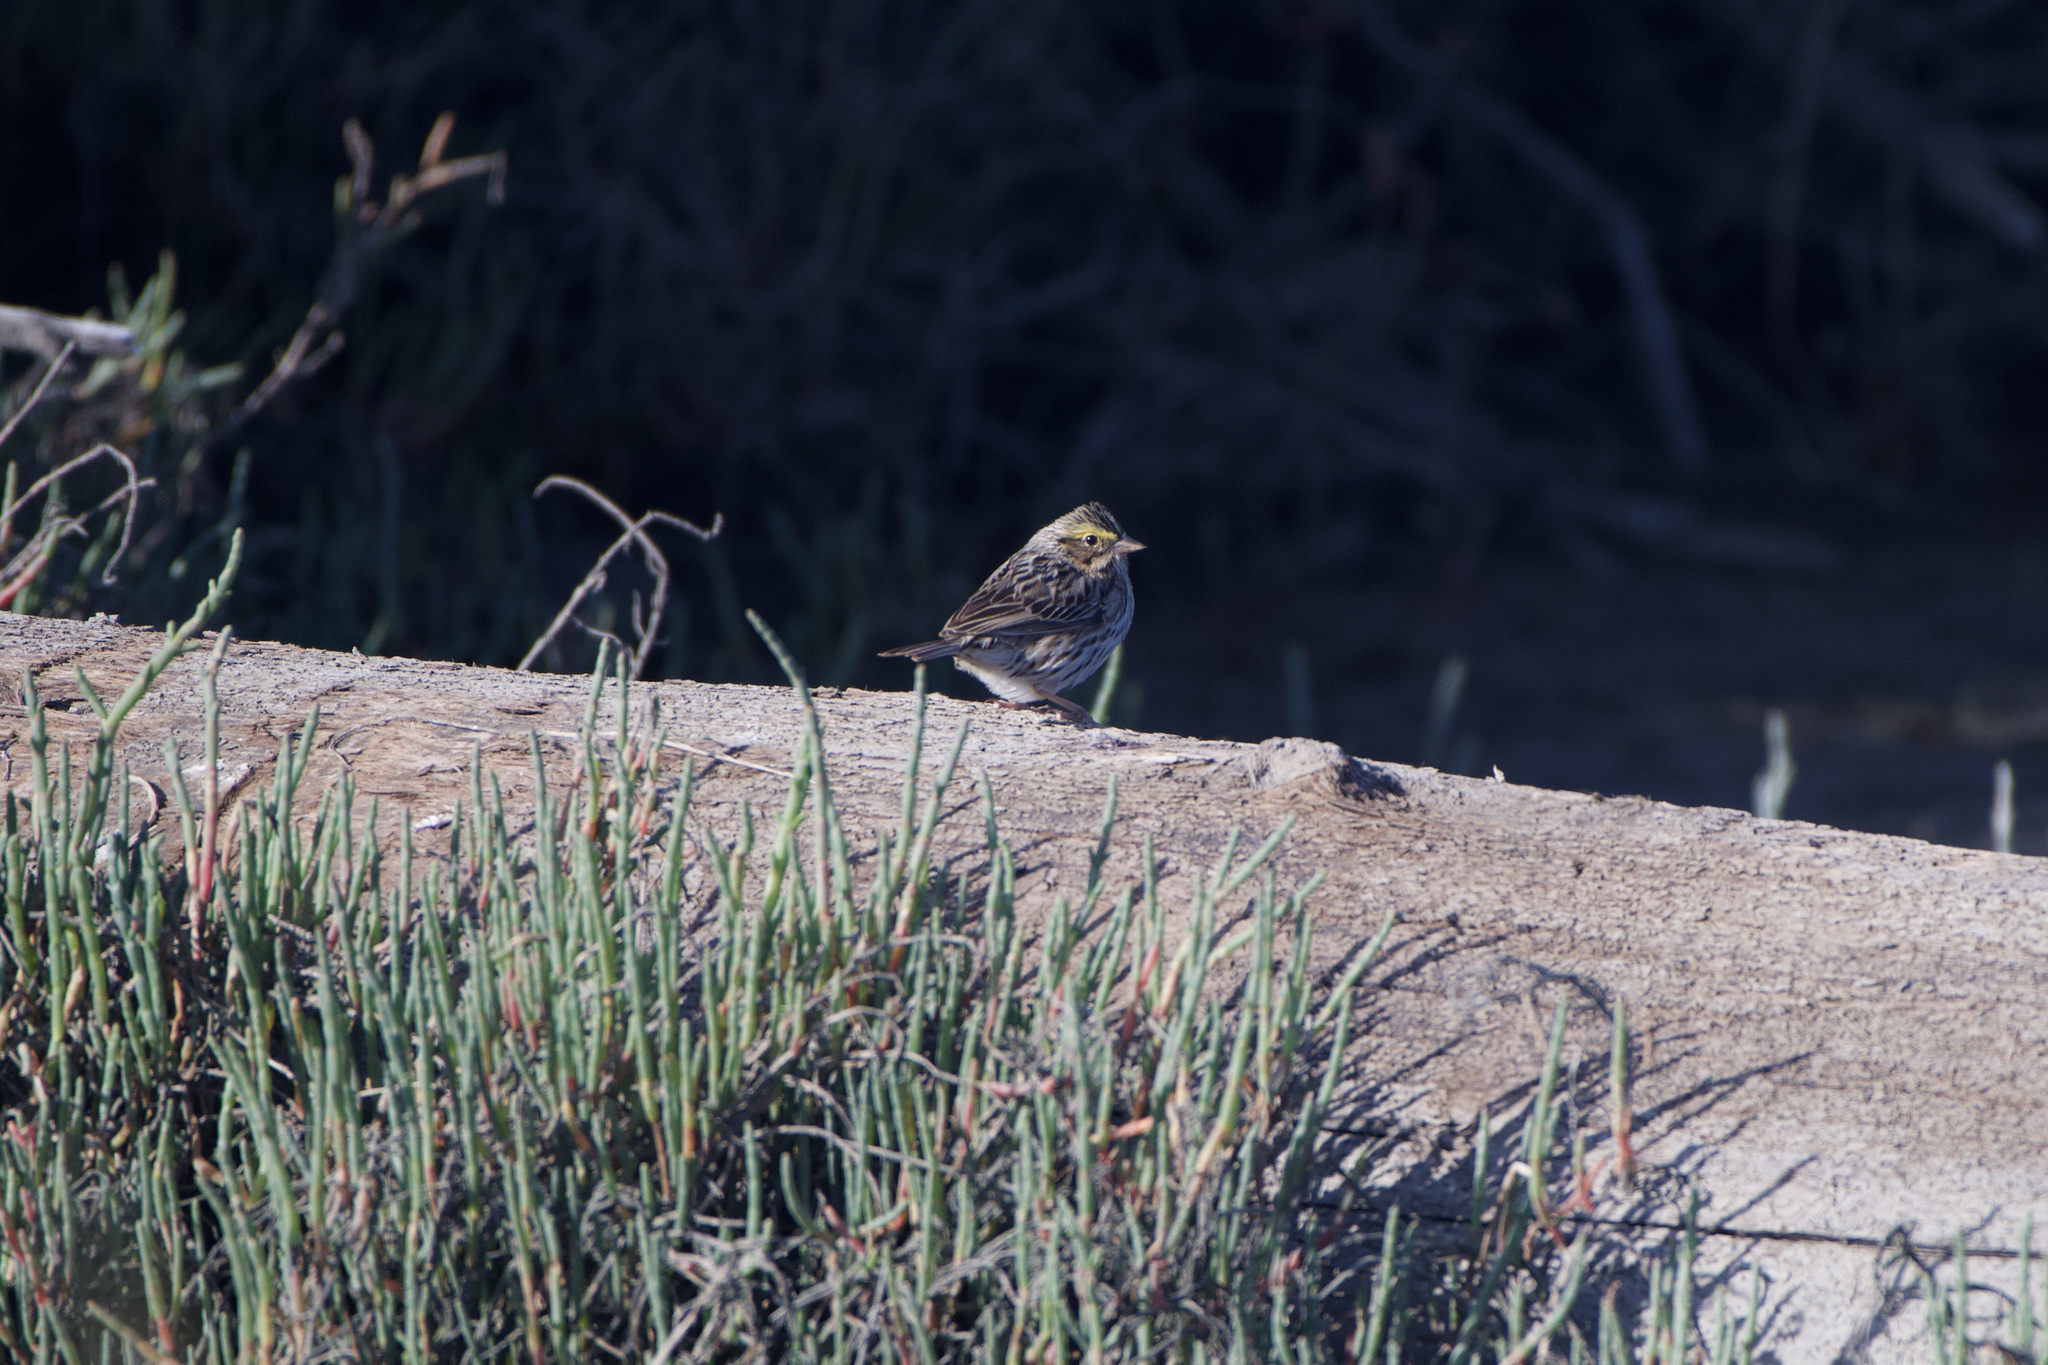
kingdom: Animalia
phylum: Chordata
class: Aves
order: Passeriformes
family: Passerellidae
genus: Passerculus
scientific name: Passerculus sandwichensis
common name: Savannah sparrow
